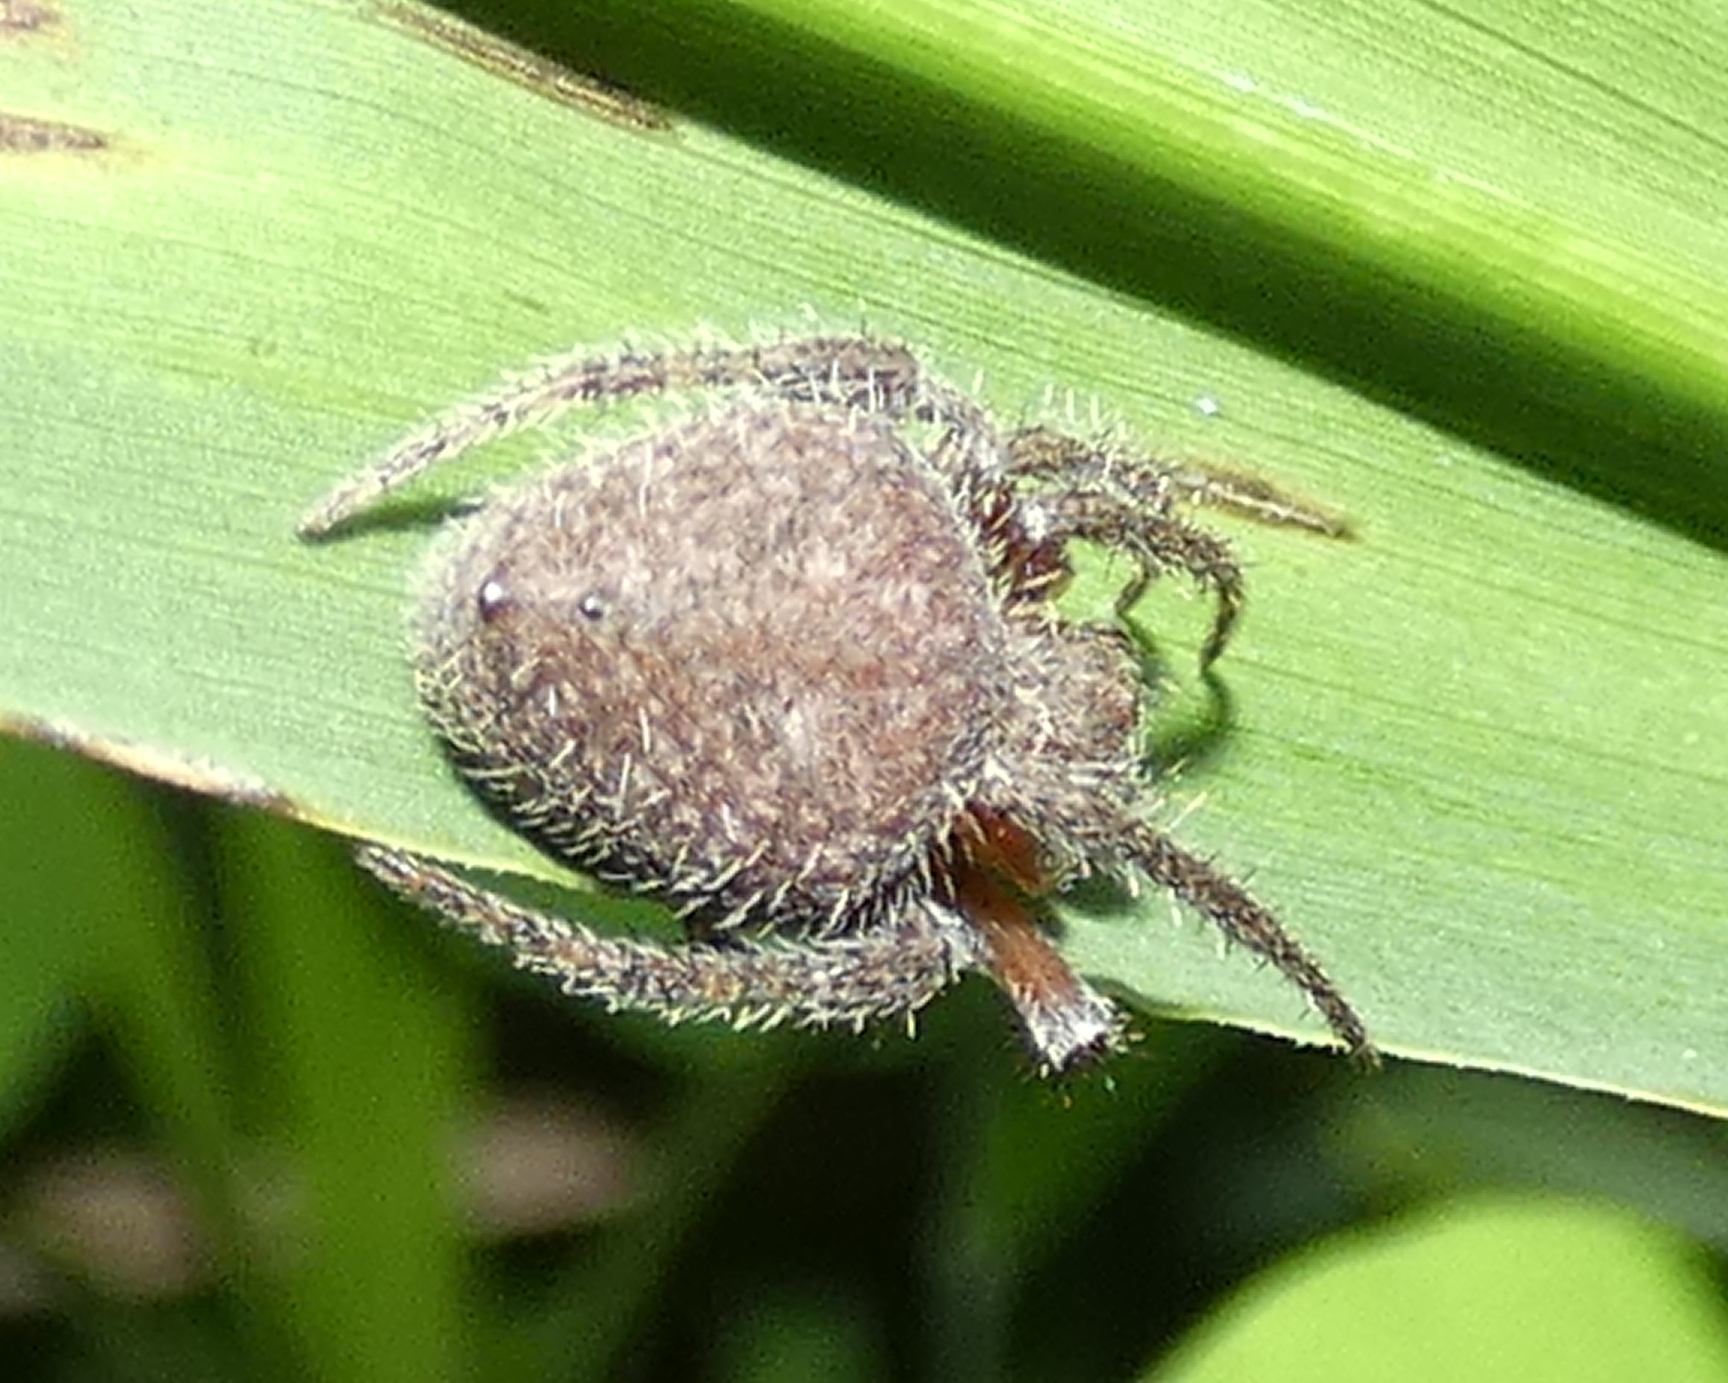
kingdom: Animalia
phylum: Arthropoda
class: Arachnida
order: Araneae
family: Araneidae
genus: Eriophora
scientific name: Eriophora edax
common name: Orb weavers
